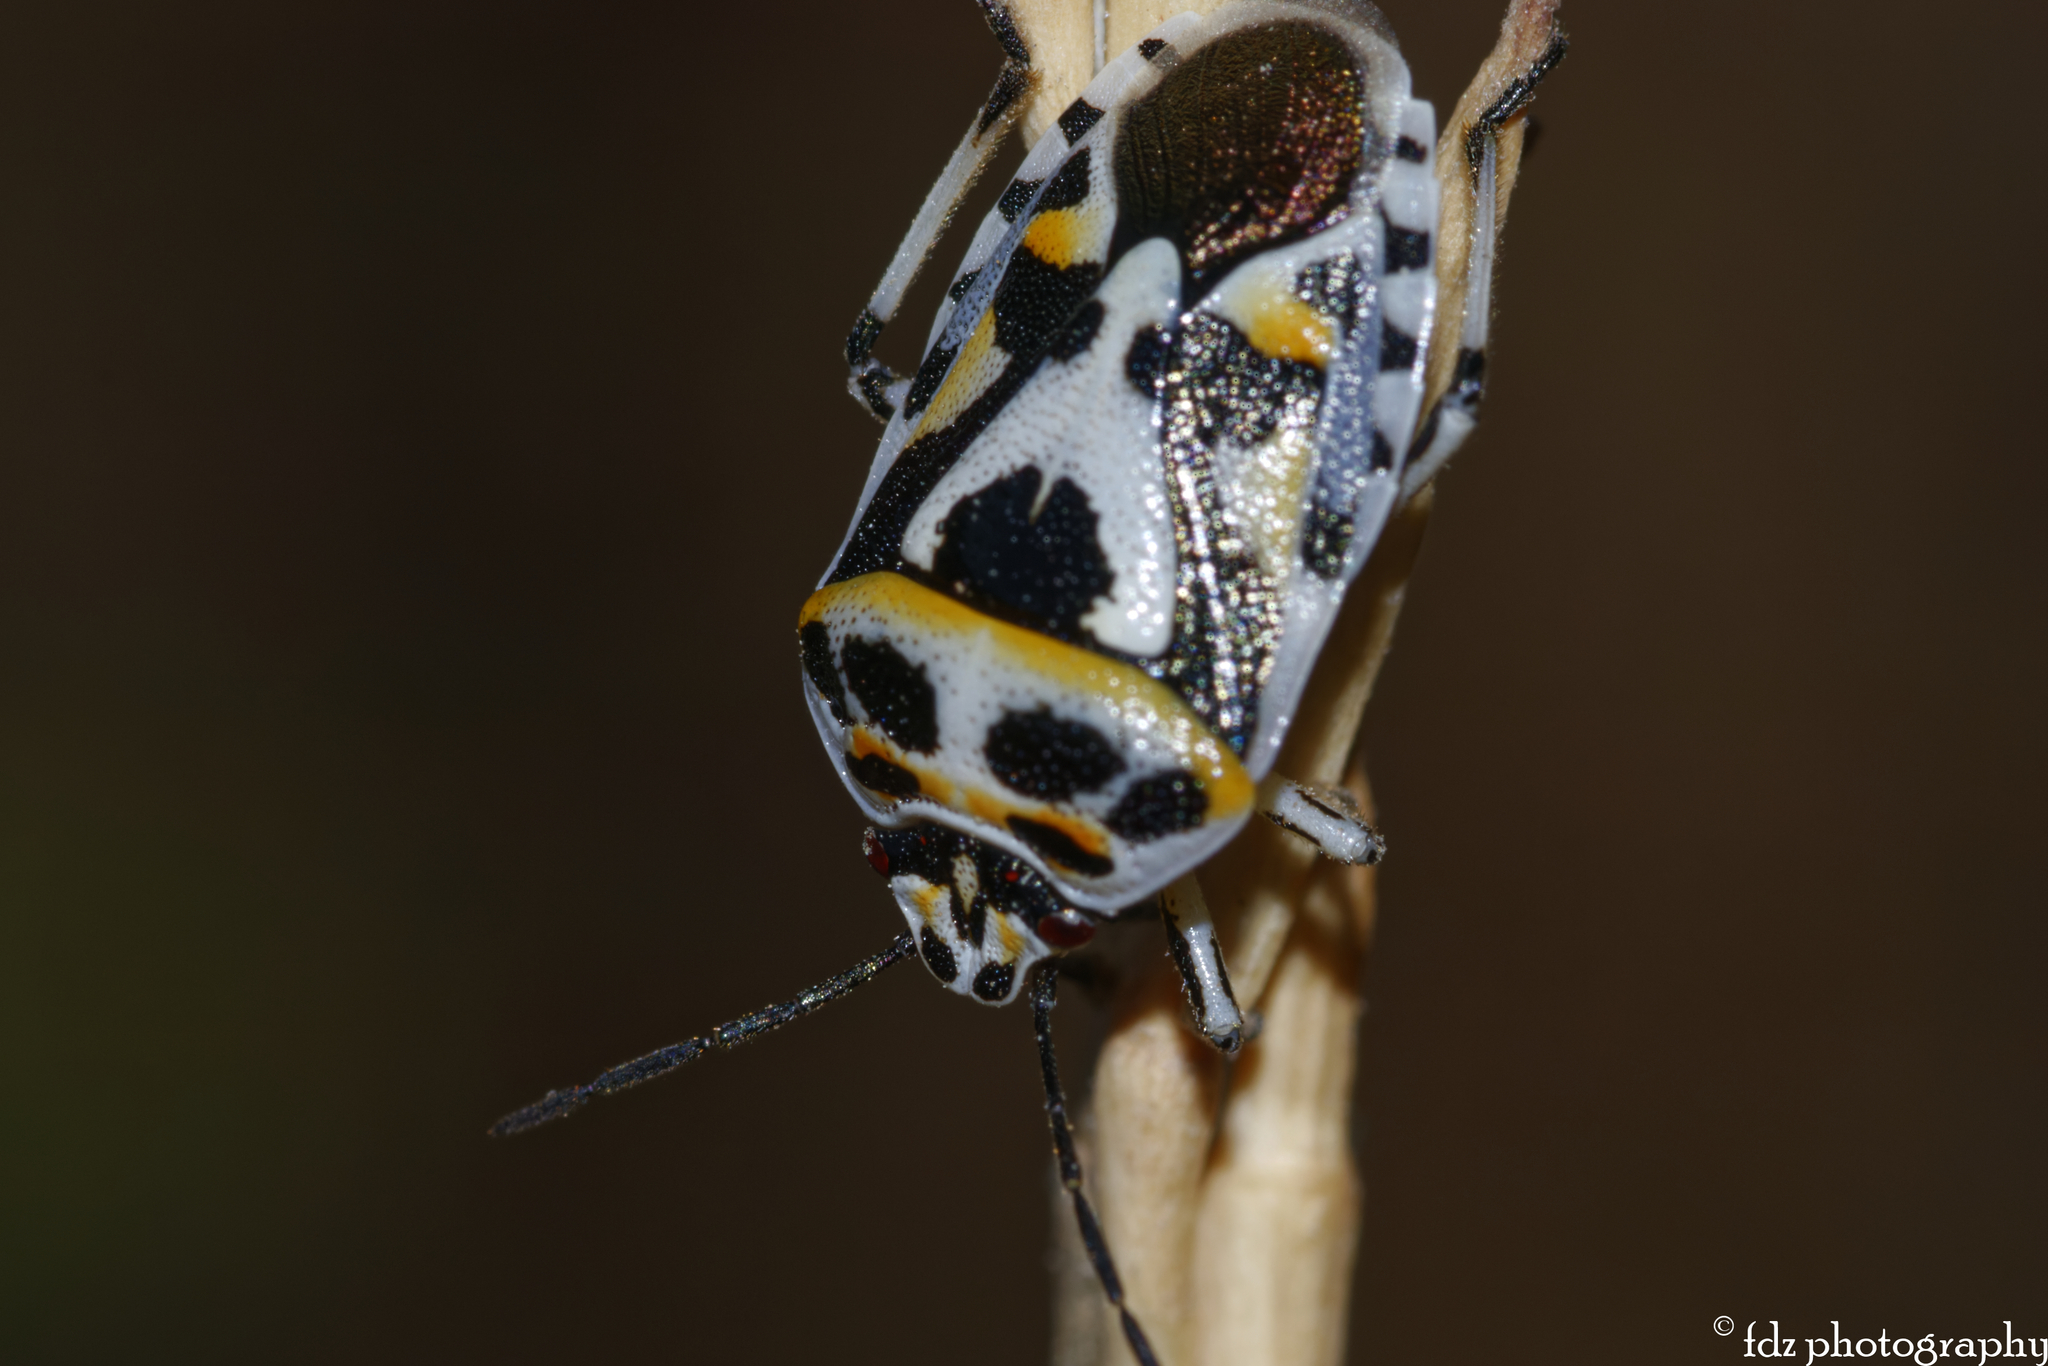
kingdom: Animalia
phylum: Arthropoda
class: Insecta
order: Hemiptera
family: Pentatomidae
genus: Eurydema
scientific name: Eurydema ornata
